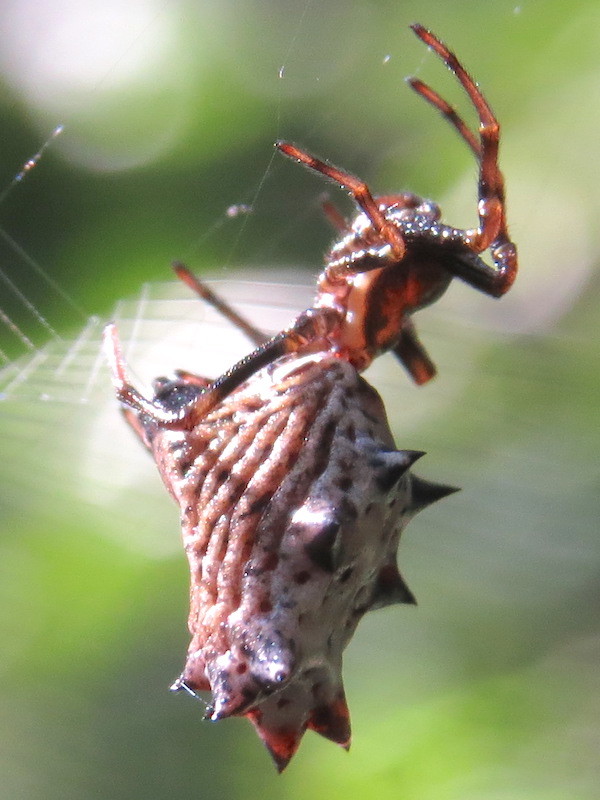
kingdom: Animalia
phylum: Arthropoda
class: Arachnida
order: Araneae
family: Araneidae
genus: Micrathena
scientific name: Micrathena gracilis
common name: Orb weavers
